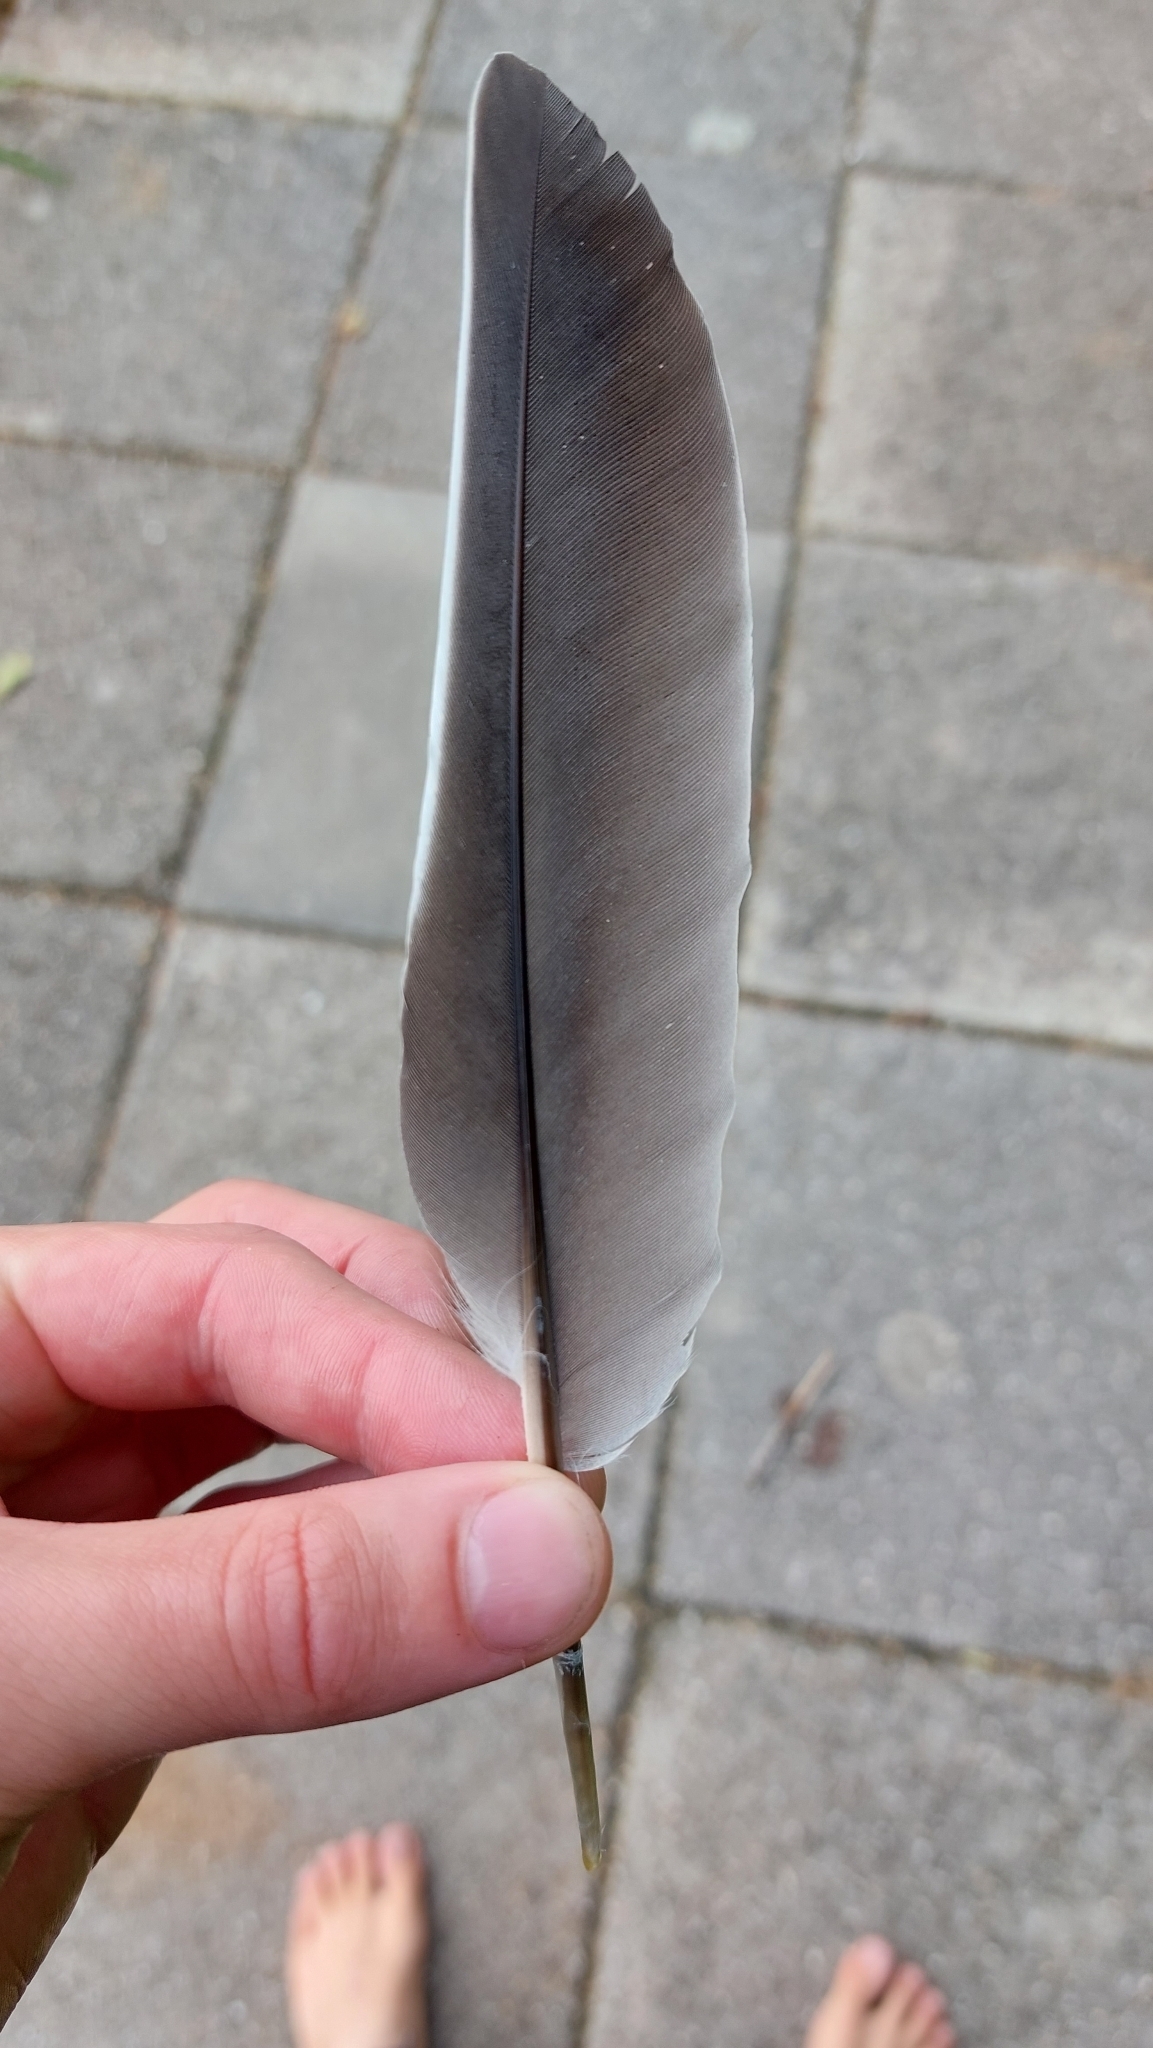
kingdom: Animalia
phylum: Chordata
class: Aves
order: Columbiformes
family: Columbidae
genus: Columba
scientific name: Columba palumbus
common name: Common wood pigeon
